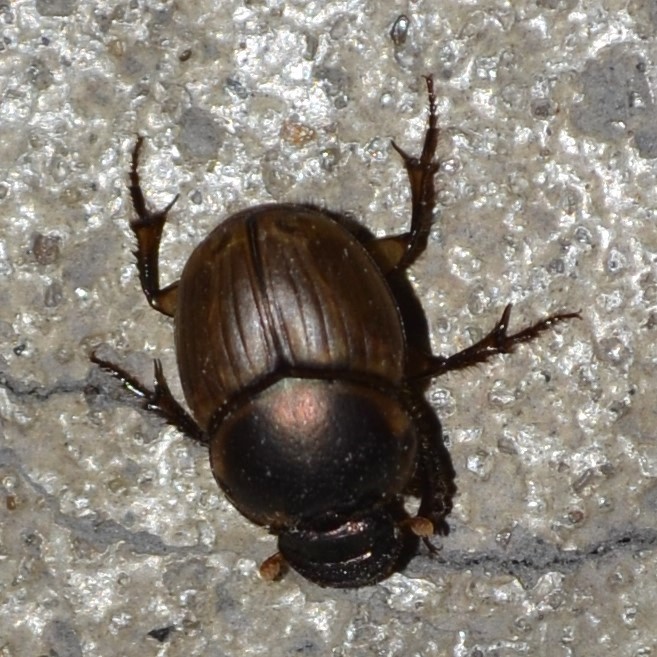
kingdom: Animalia
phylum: Arthropoda
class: Insecta
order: Coleoptera
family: Scarabaeidae
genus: Digitonthophagus
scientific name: Digitonthophagus gazella
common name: Brown dung beetle
